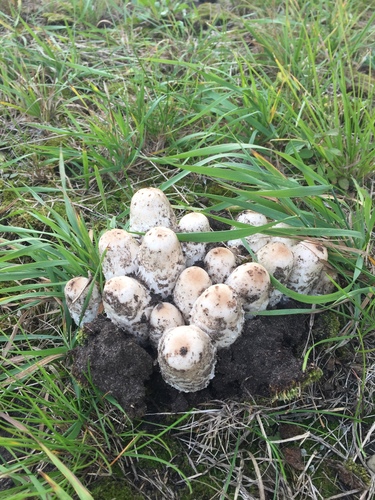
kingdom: Fungi
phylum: Basidiomycota
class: Agaricomycetes
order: Agaricales
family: Agaricaceae
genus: Coprinus
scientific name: Coprinus comatus
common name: Lawyer's wig
